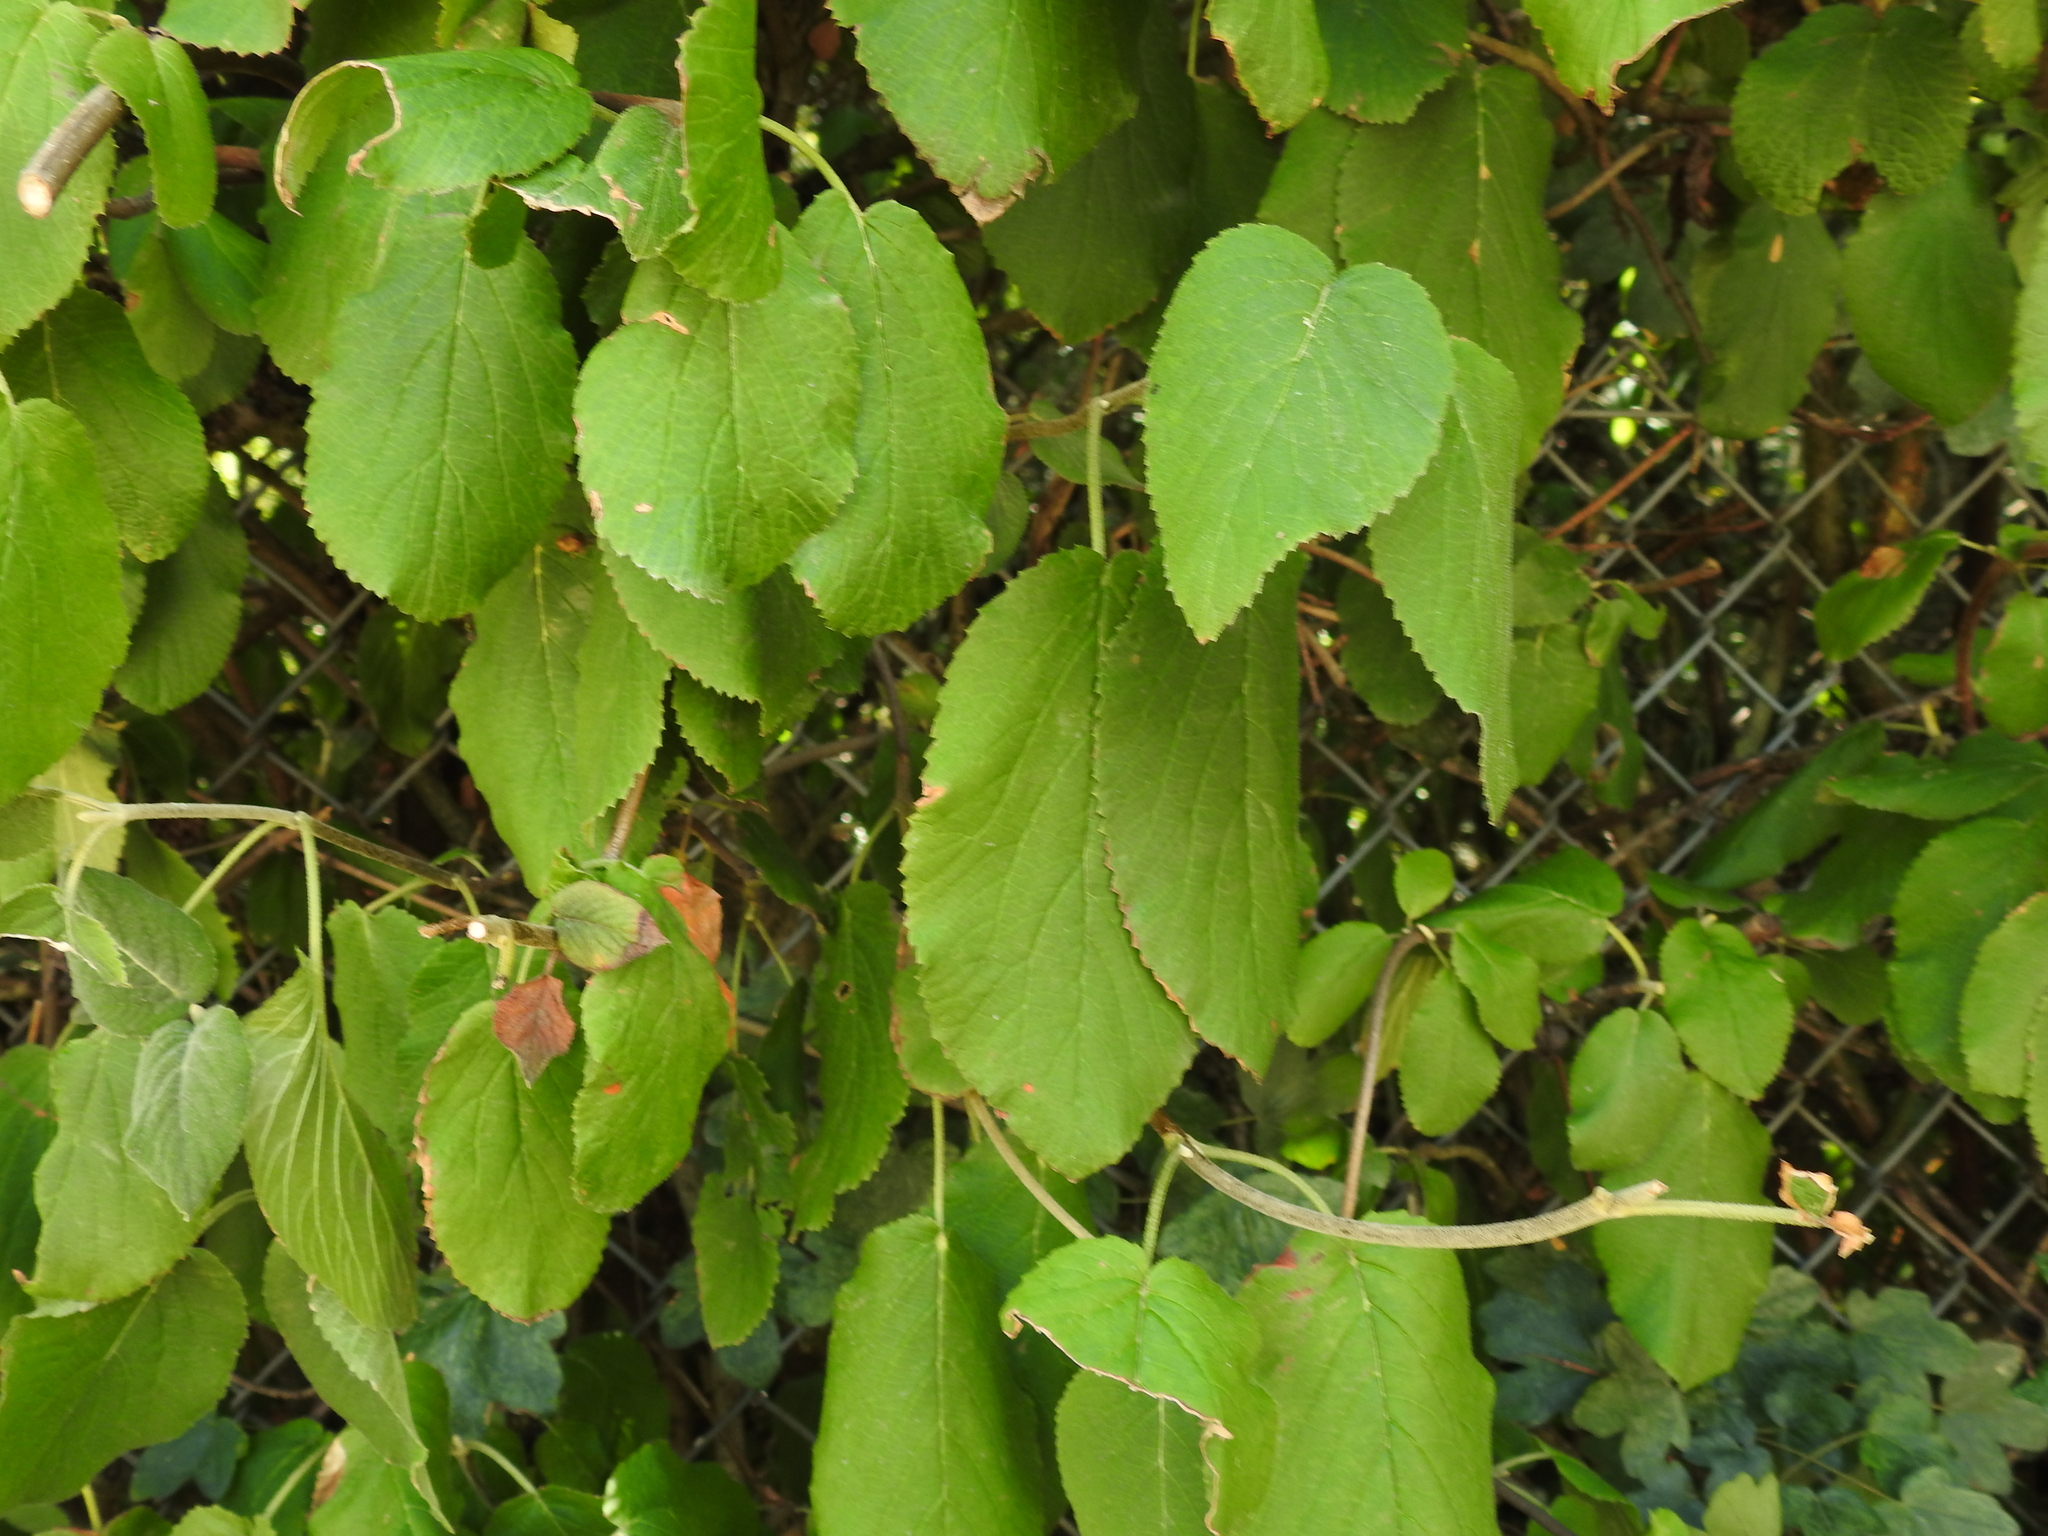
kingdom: Plantae
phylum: Tracheophyta
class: Magnoliopsida
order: Dipsacales
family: Viburnaceae
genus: Viburnum
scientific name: Viburnum lantana
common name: Wayfaring tree
